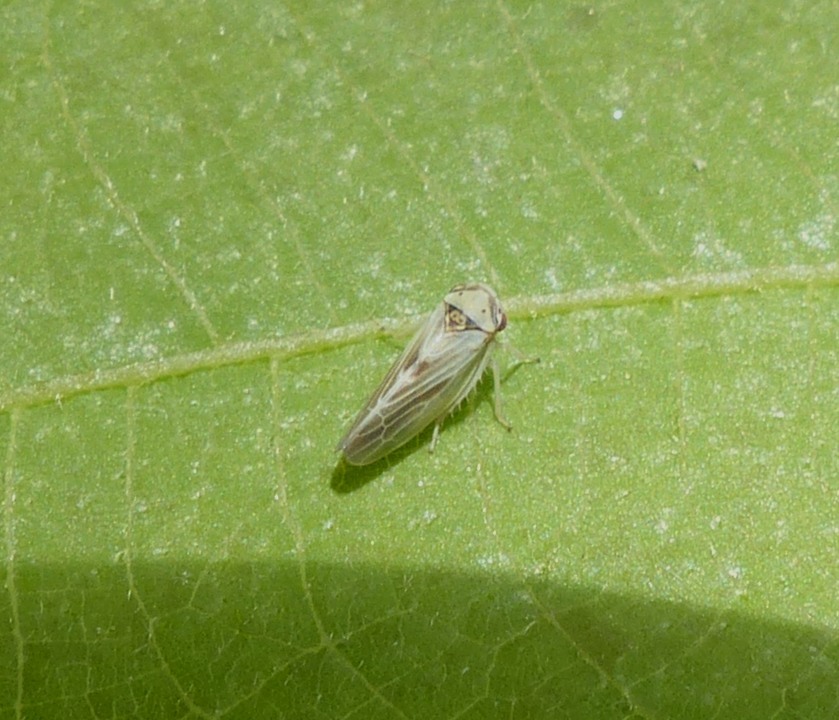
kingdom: Animalia
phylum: Arthropoda
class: Insecta
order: Hemiptera
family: Cicadellidae
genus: Agalliopsis
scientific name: Agalliopsis ancistra
